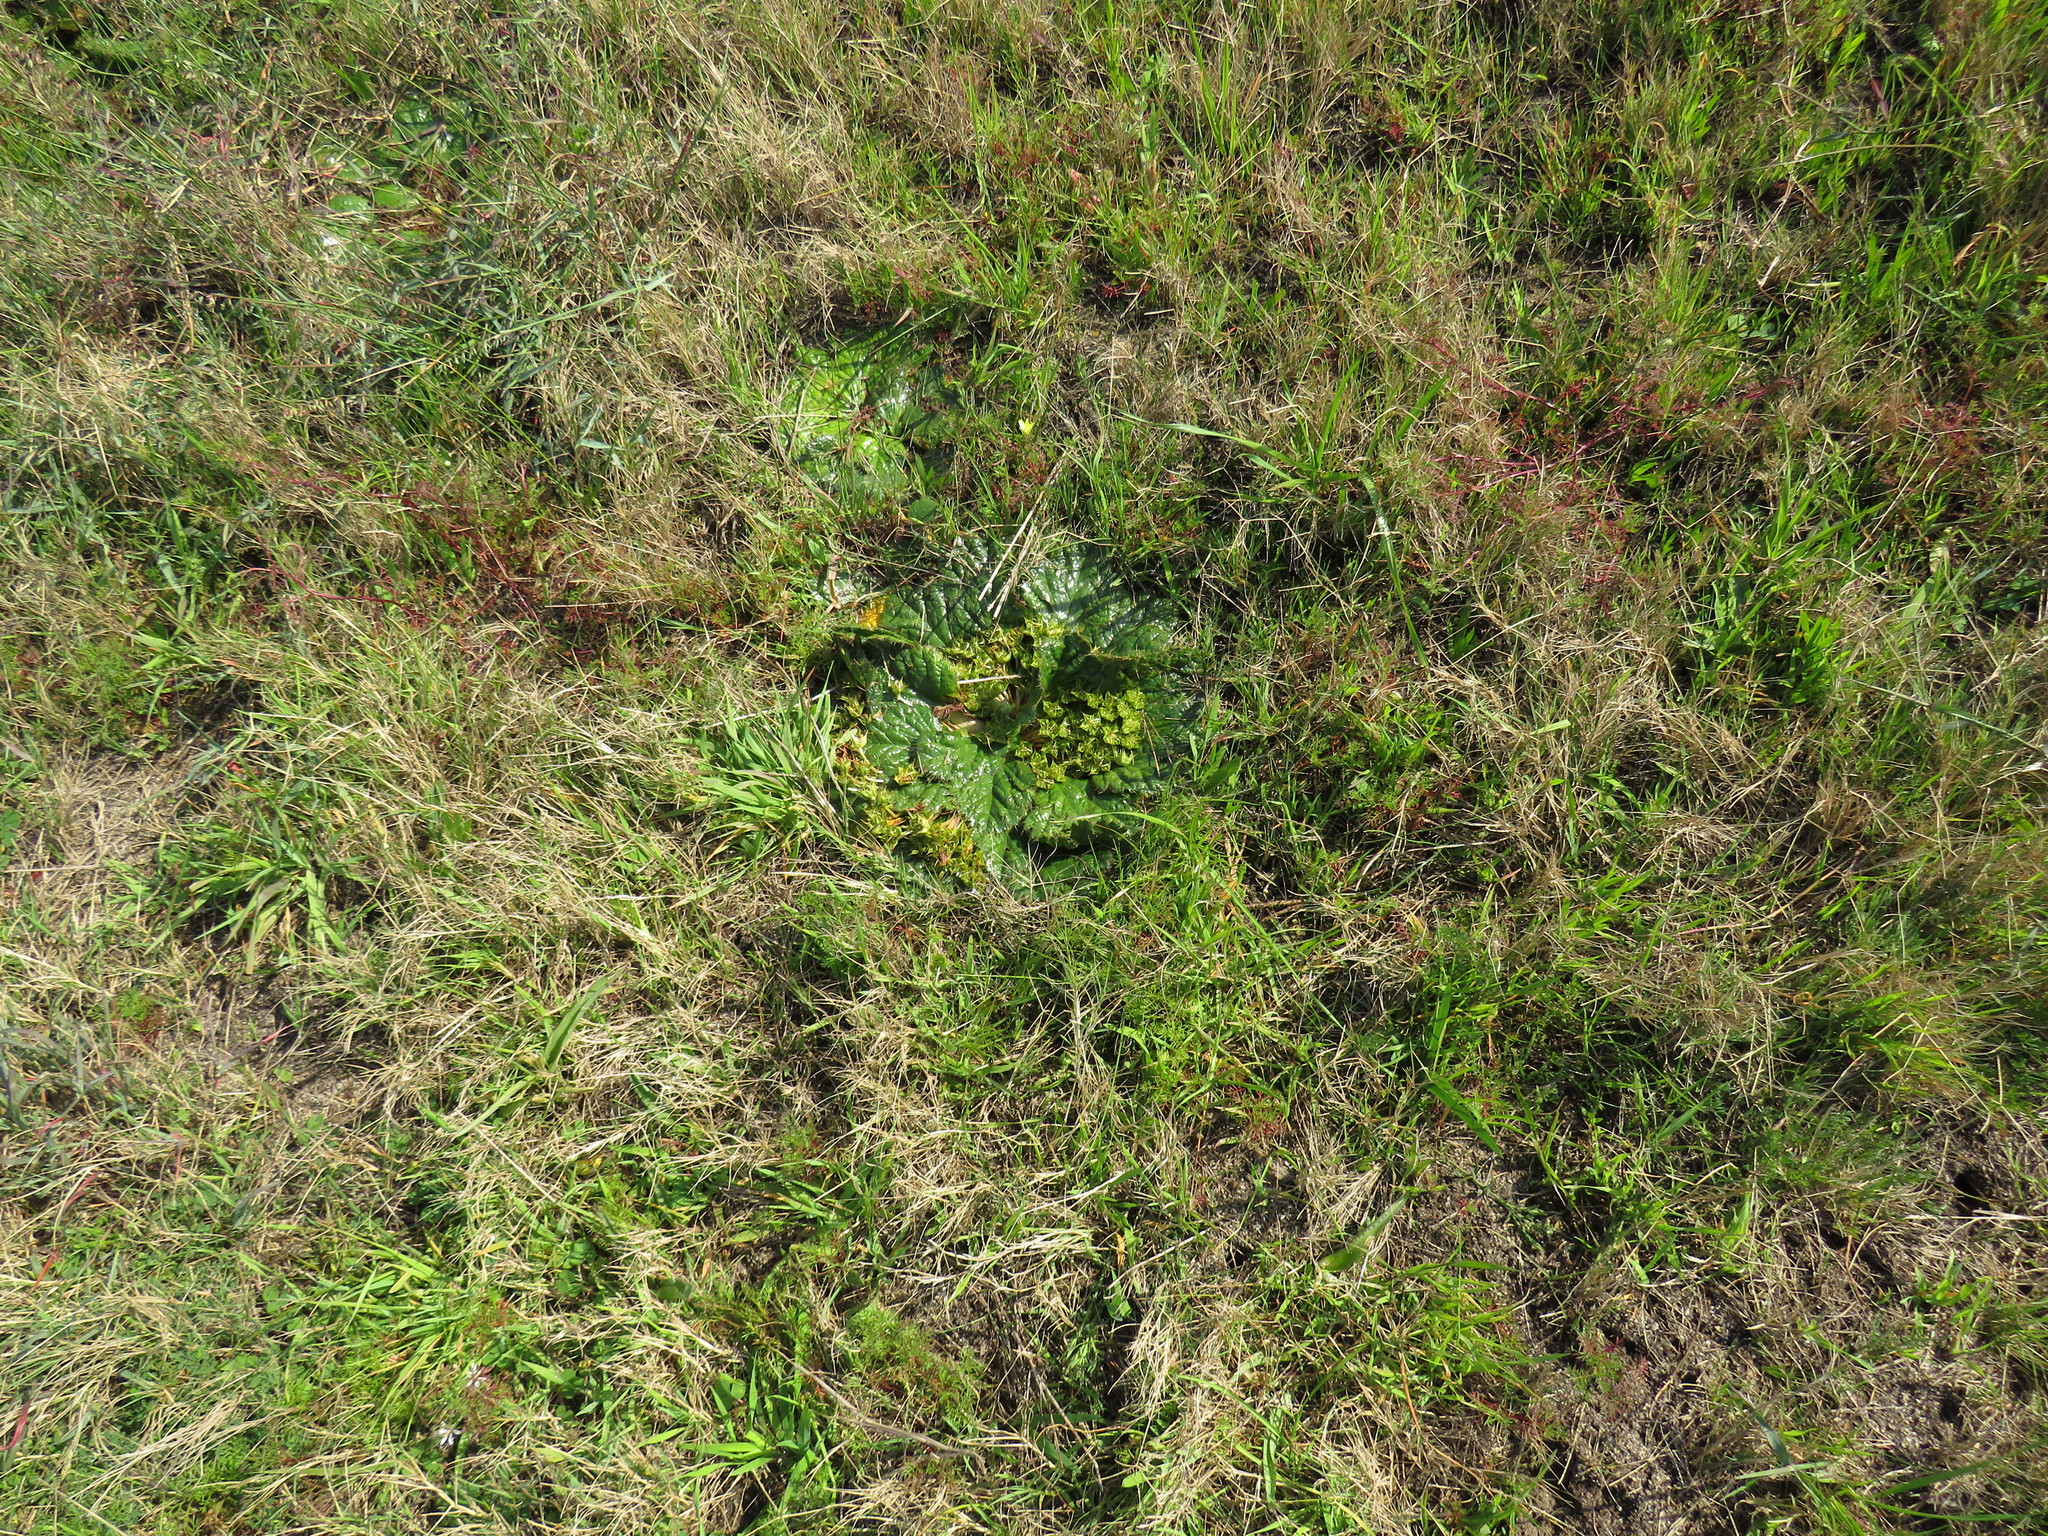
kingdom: Plantae
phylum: Tracheophyta
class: Magnoliopsida
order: Apiales
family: Apiaceae
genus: Arctopus
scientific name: Arctopus echinatus
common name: Platdoring
